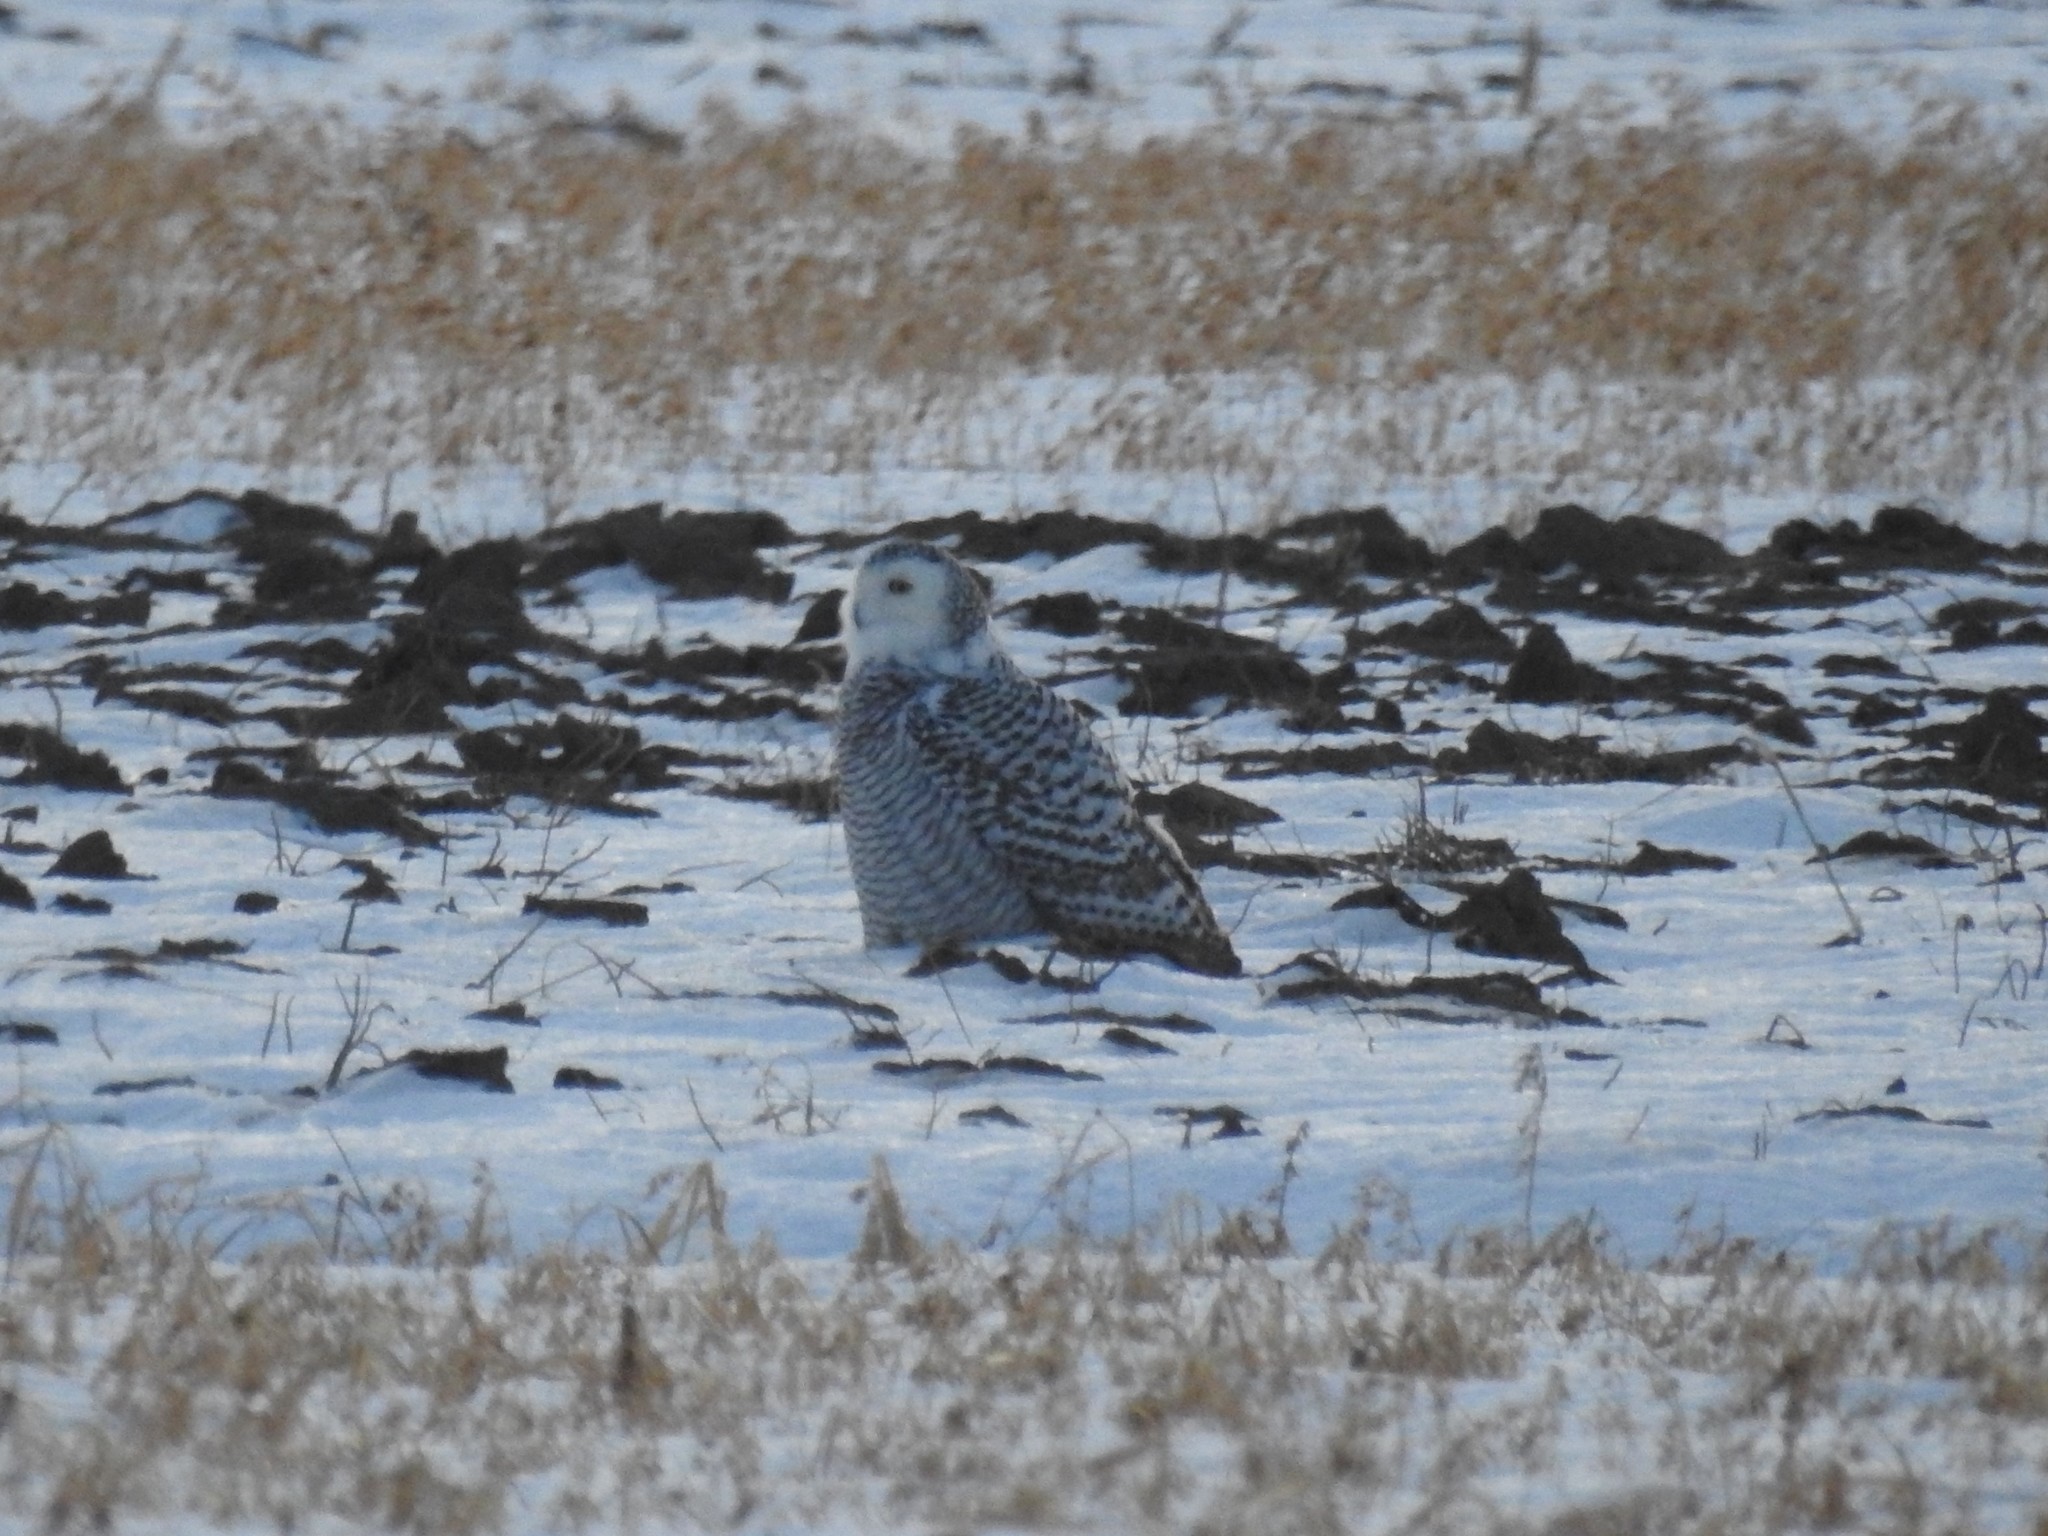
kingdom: Animalia
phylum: Chordata
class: Aves
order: Strigiformes
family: Strigidae
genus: Bubo
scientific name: Bubo scandiacus
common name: Snowy owl
